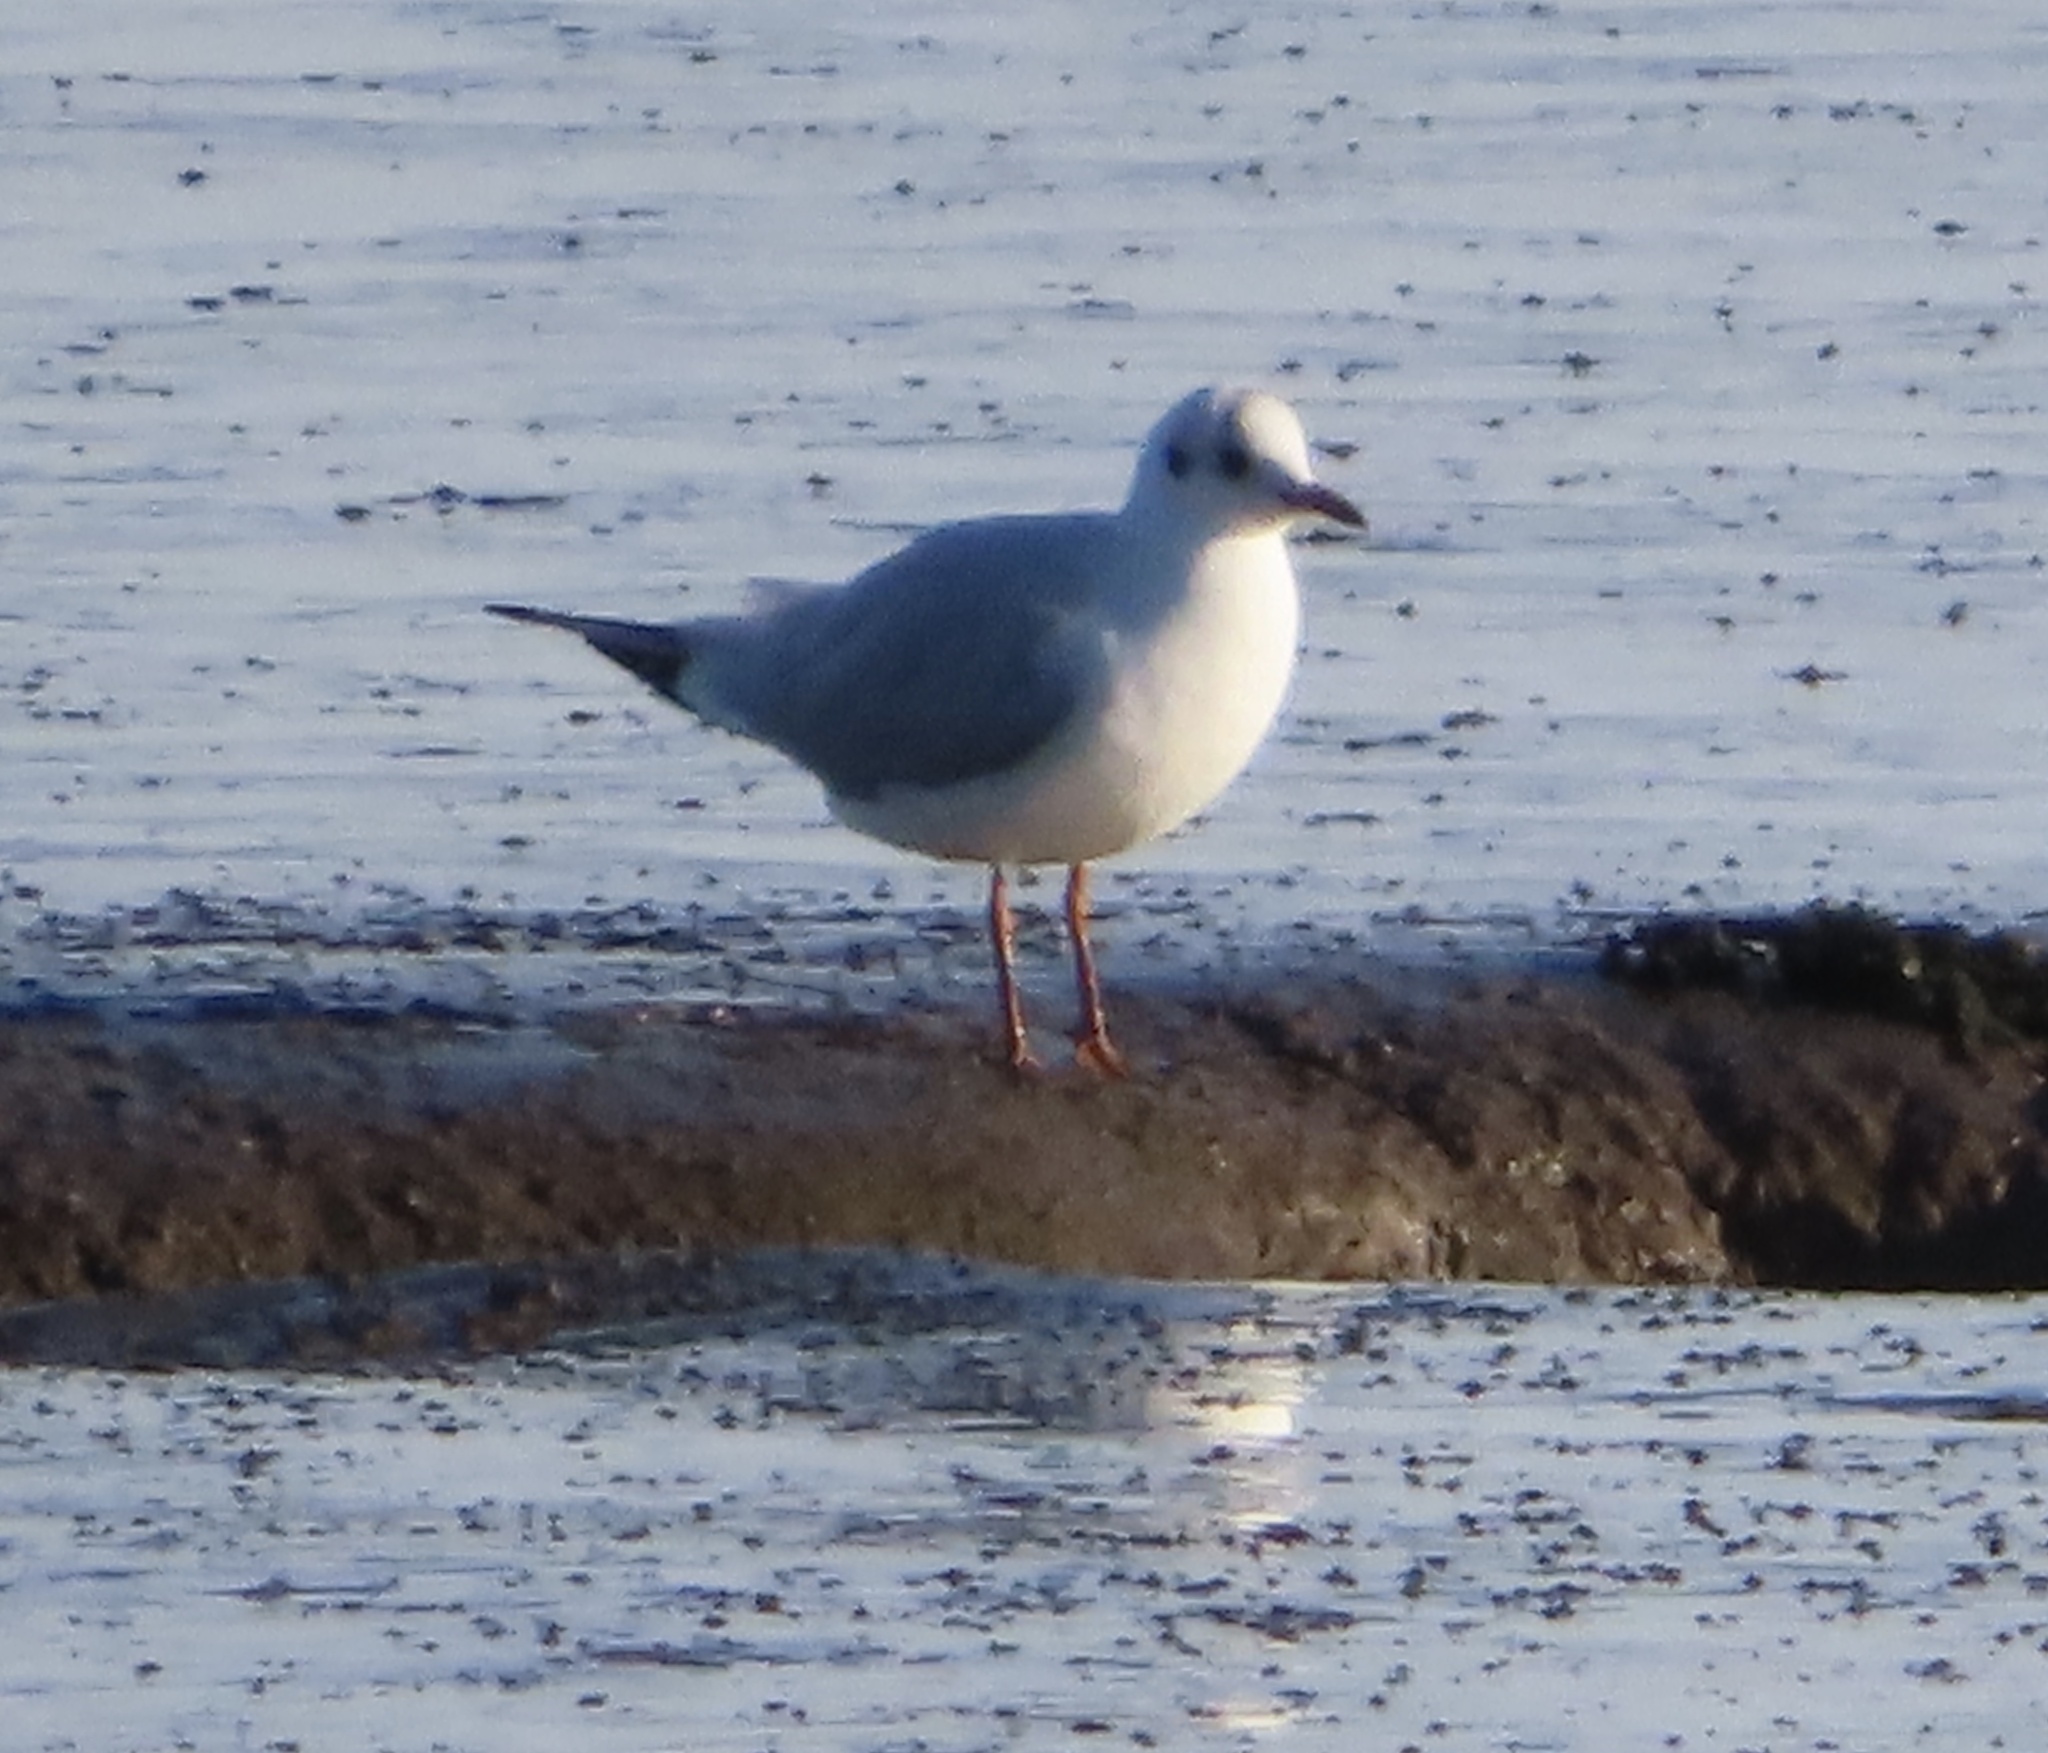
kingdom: Animalia
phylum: Chordata
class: Aves
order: Charadriiformes
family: Laridae
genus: Chroicocephalus
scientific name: Chroicocephalus ridibundus
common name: Black-headed gull
